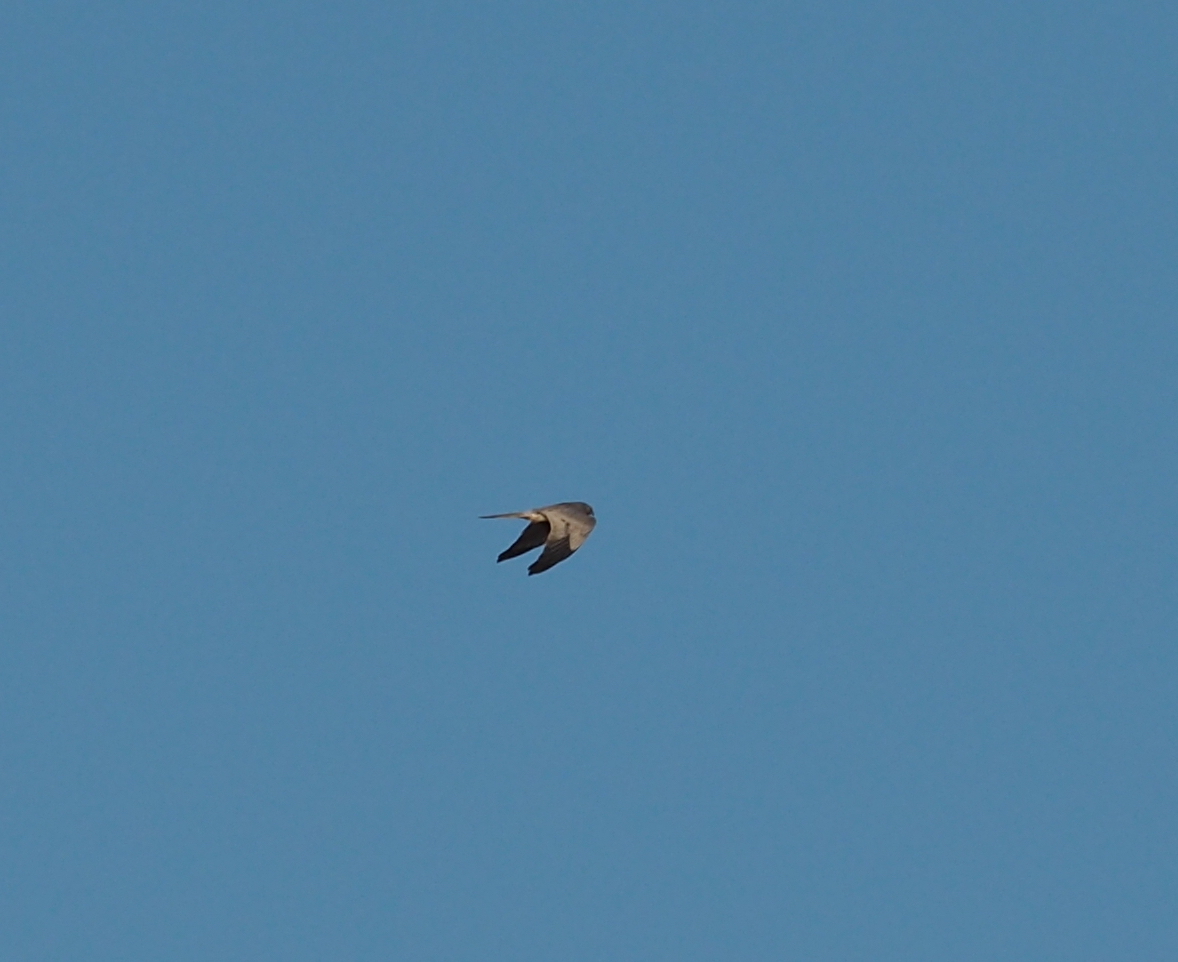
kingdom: Animalia
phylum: Chordata
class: Aves
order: Accipitriformes
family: Accipitridae
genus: Circus
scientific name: Circus pygargus
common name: Montagu's harrier
